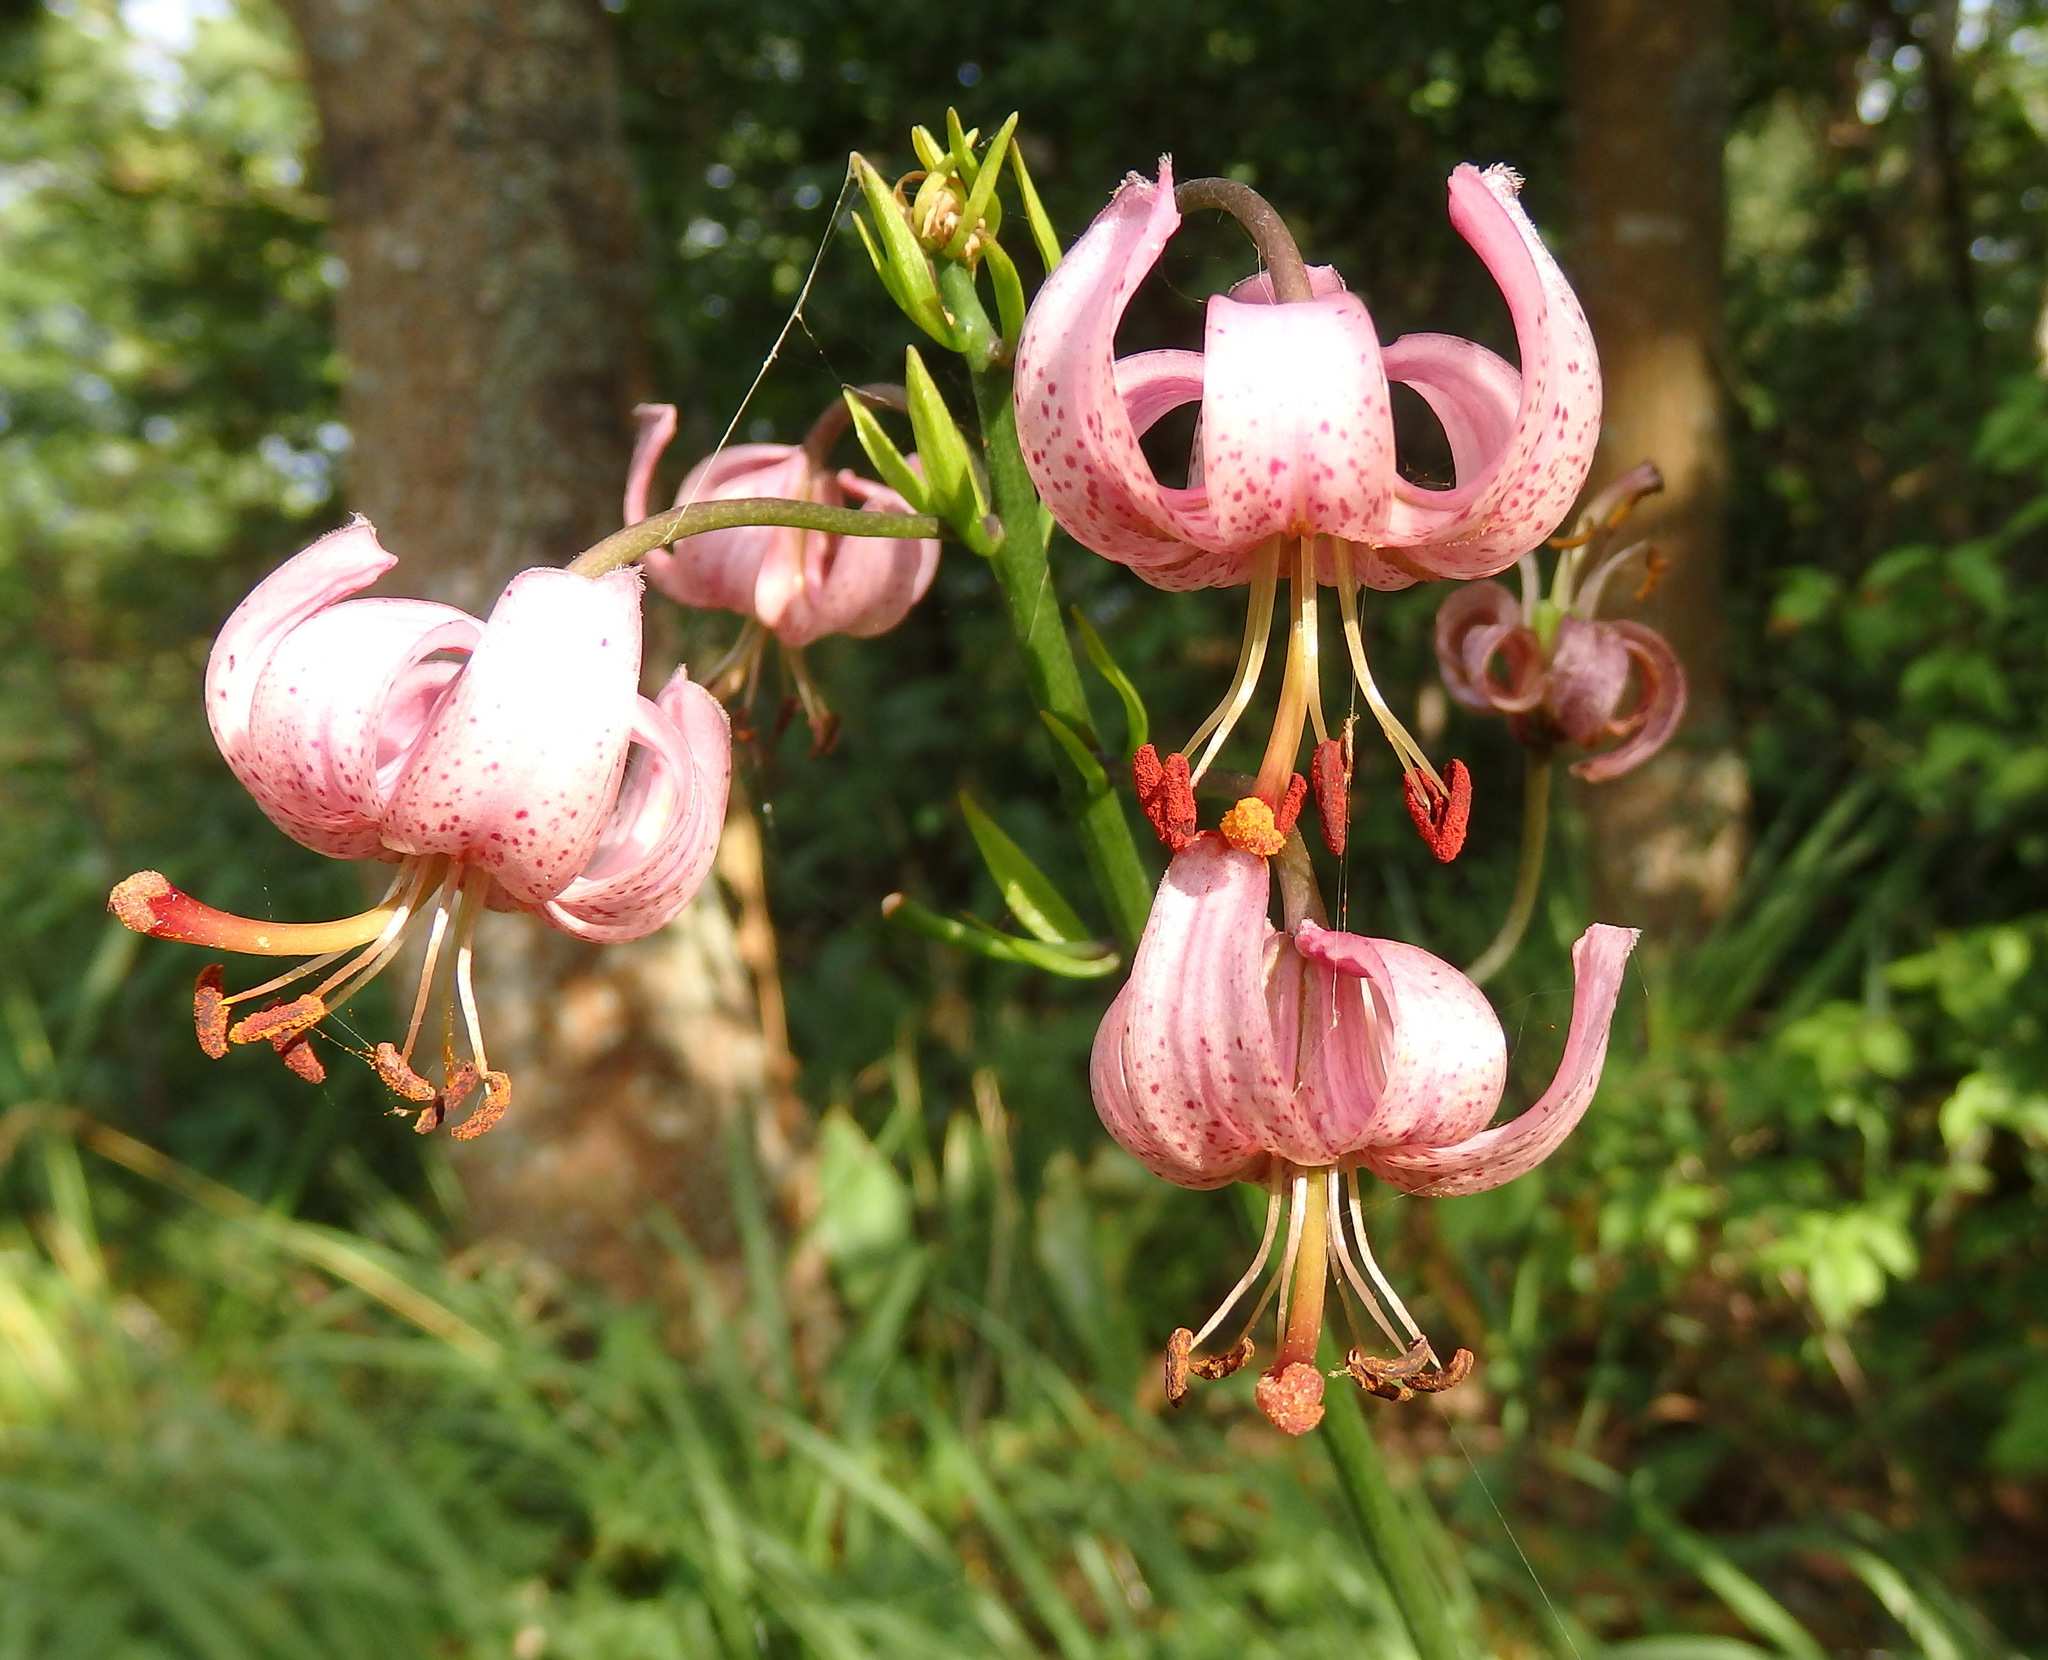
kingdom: Plantae
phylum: Tracheophyta
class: Liliopsida
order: Liliales
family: Liliaceae
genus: Lilium
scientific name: Lilium martagon
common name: Martagon lily
